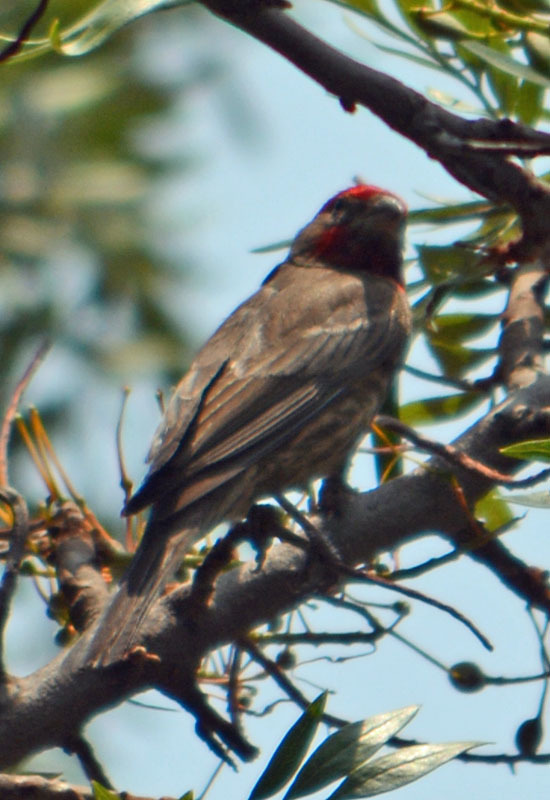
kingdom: Animalia
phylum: Chordata
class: Aves
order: Passeriformes
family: Fringillidae
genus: Haemorhous
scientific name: Haemorhous mexicanus
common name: House finch
